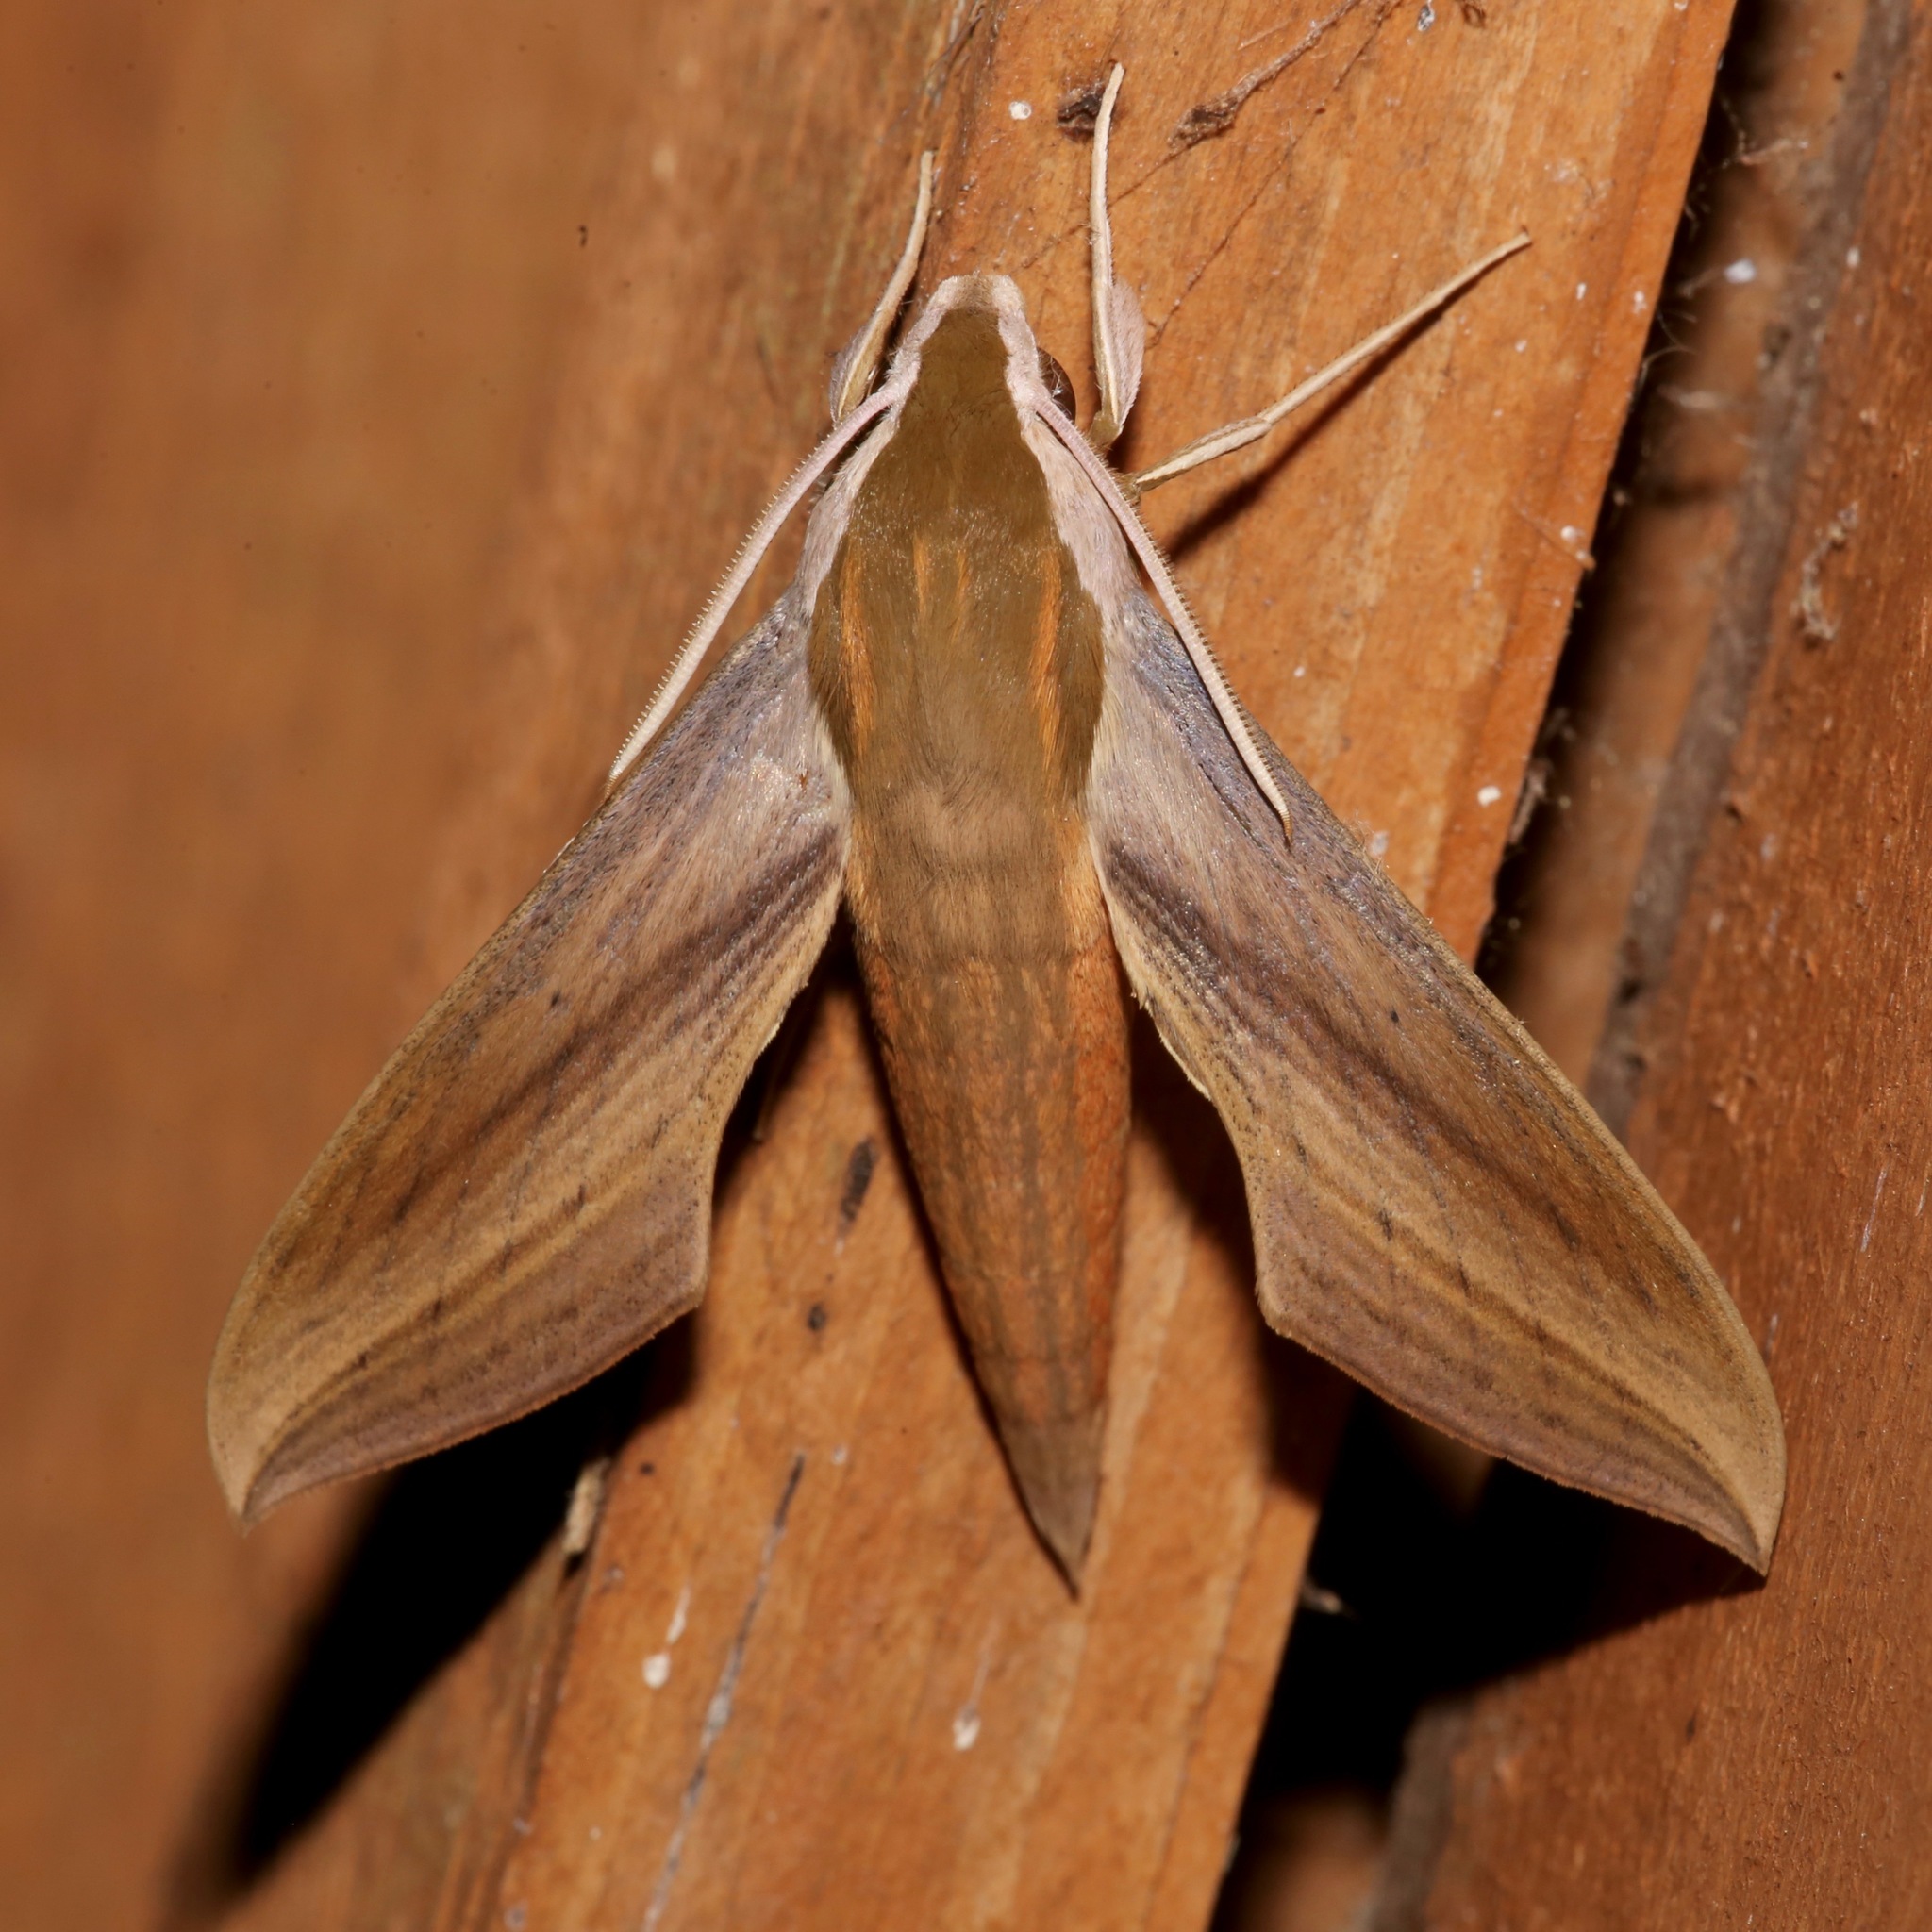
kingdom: Animalia
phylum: Arthropoda
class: Insecta
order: Lepidoptera
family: Sphingidae
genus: Xylophanes
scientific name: Xylophanes tersa
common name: Tersa sphinx
